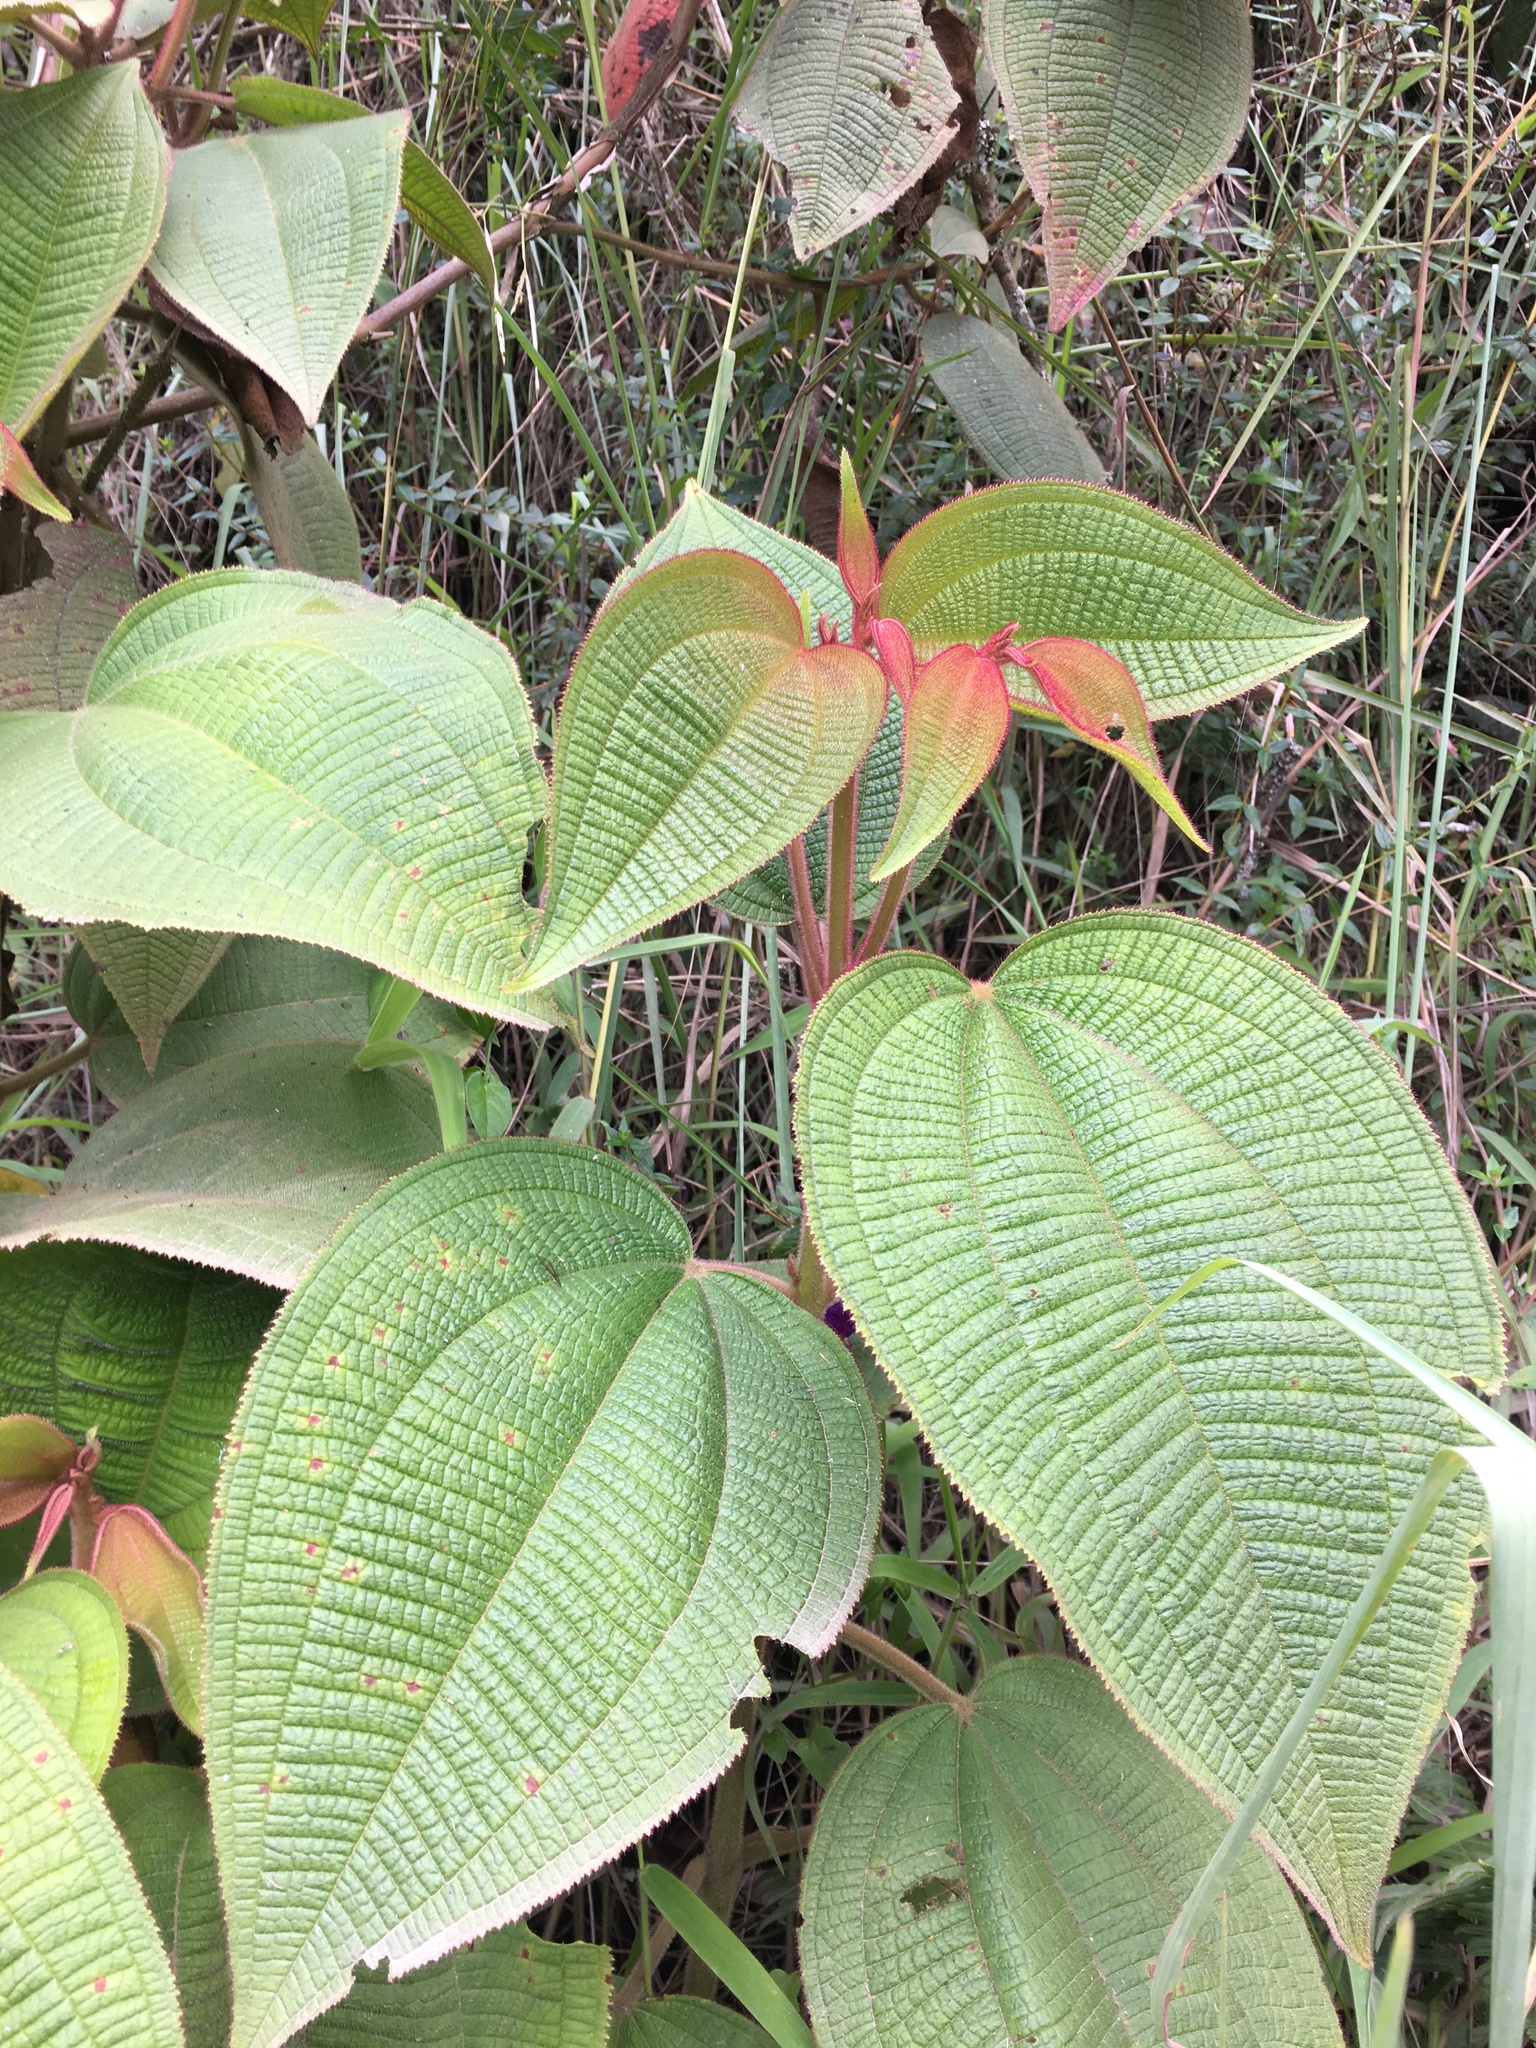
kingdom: Plantae
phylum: Tracheophyta
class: Magnoliopsida
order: Myrtales
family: Melastomataceae
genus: Miconia
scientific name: Miconia aeruginosa
